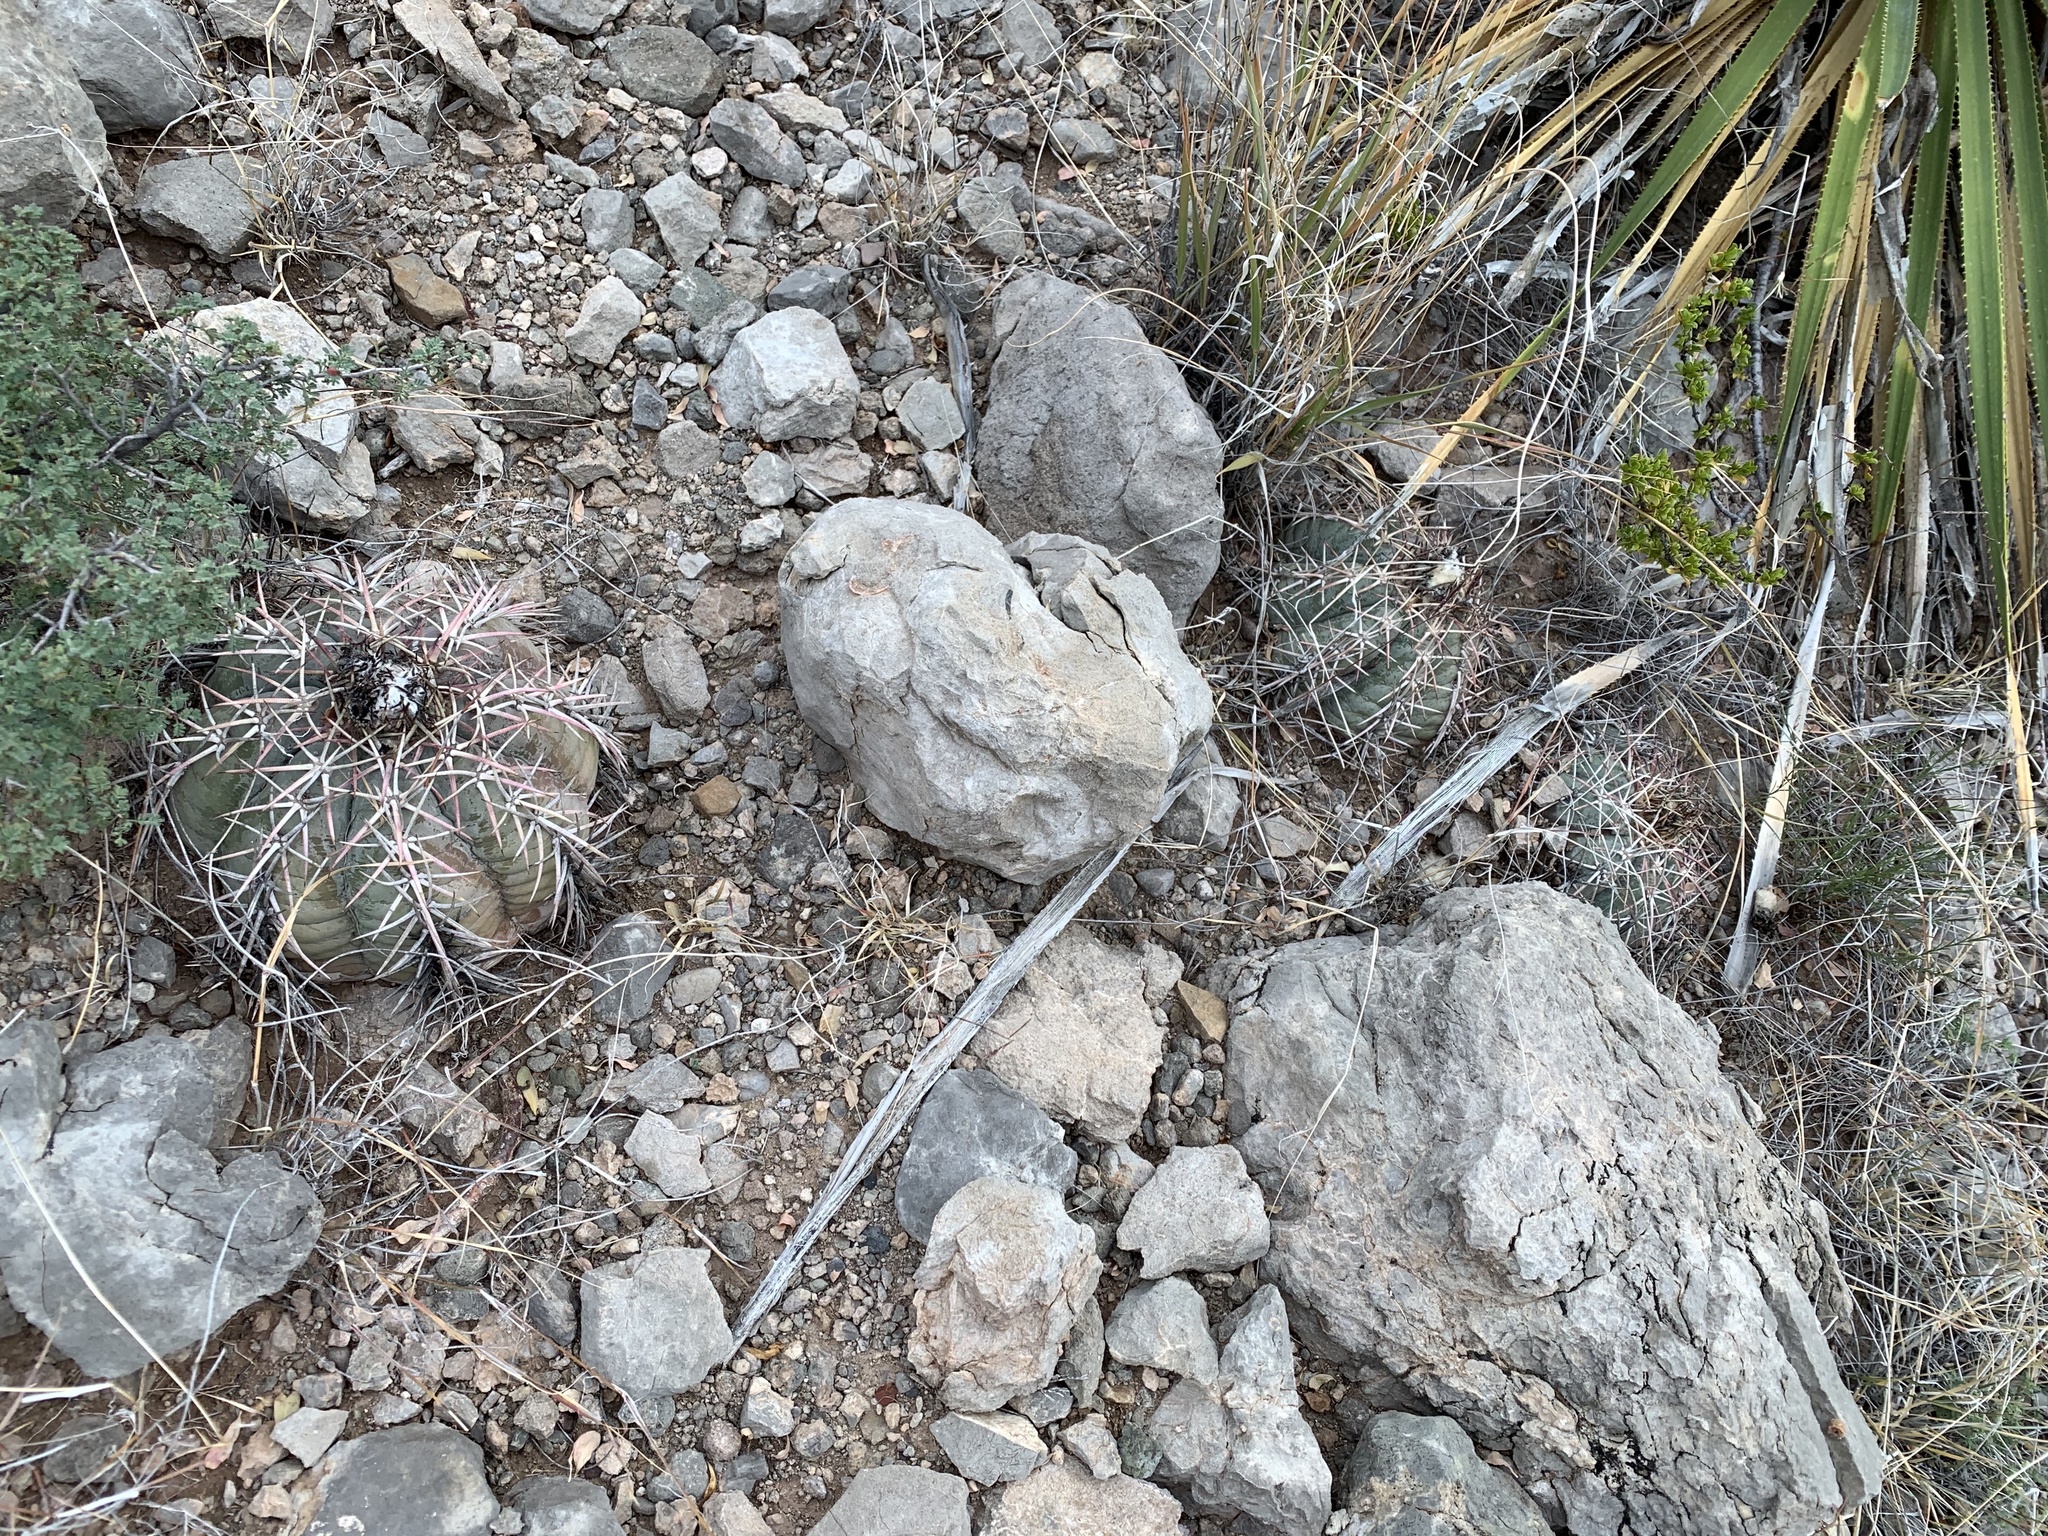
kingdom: Plantae
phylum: Tracheophyta
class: Magnoliopsida
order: Caryophyllales
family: Cactaceae
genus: Echinocactus
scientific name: Echinocactus horizonthalonius
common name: Devilshead
